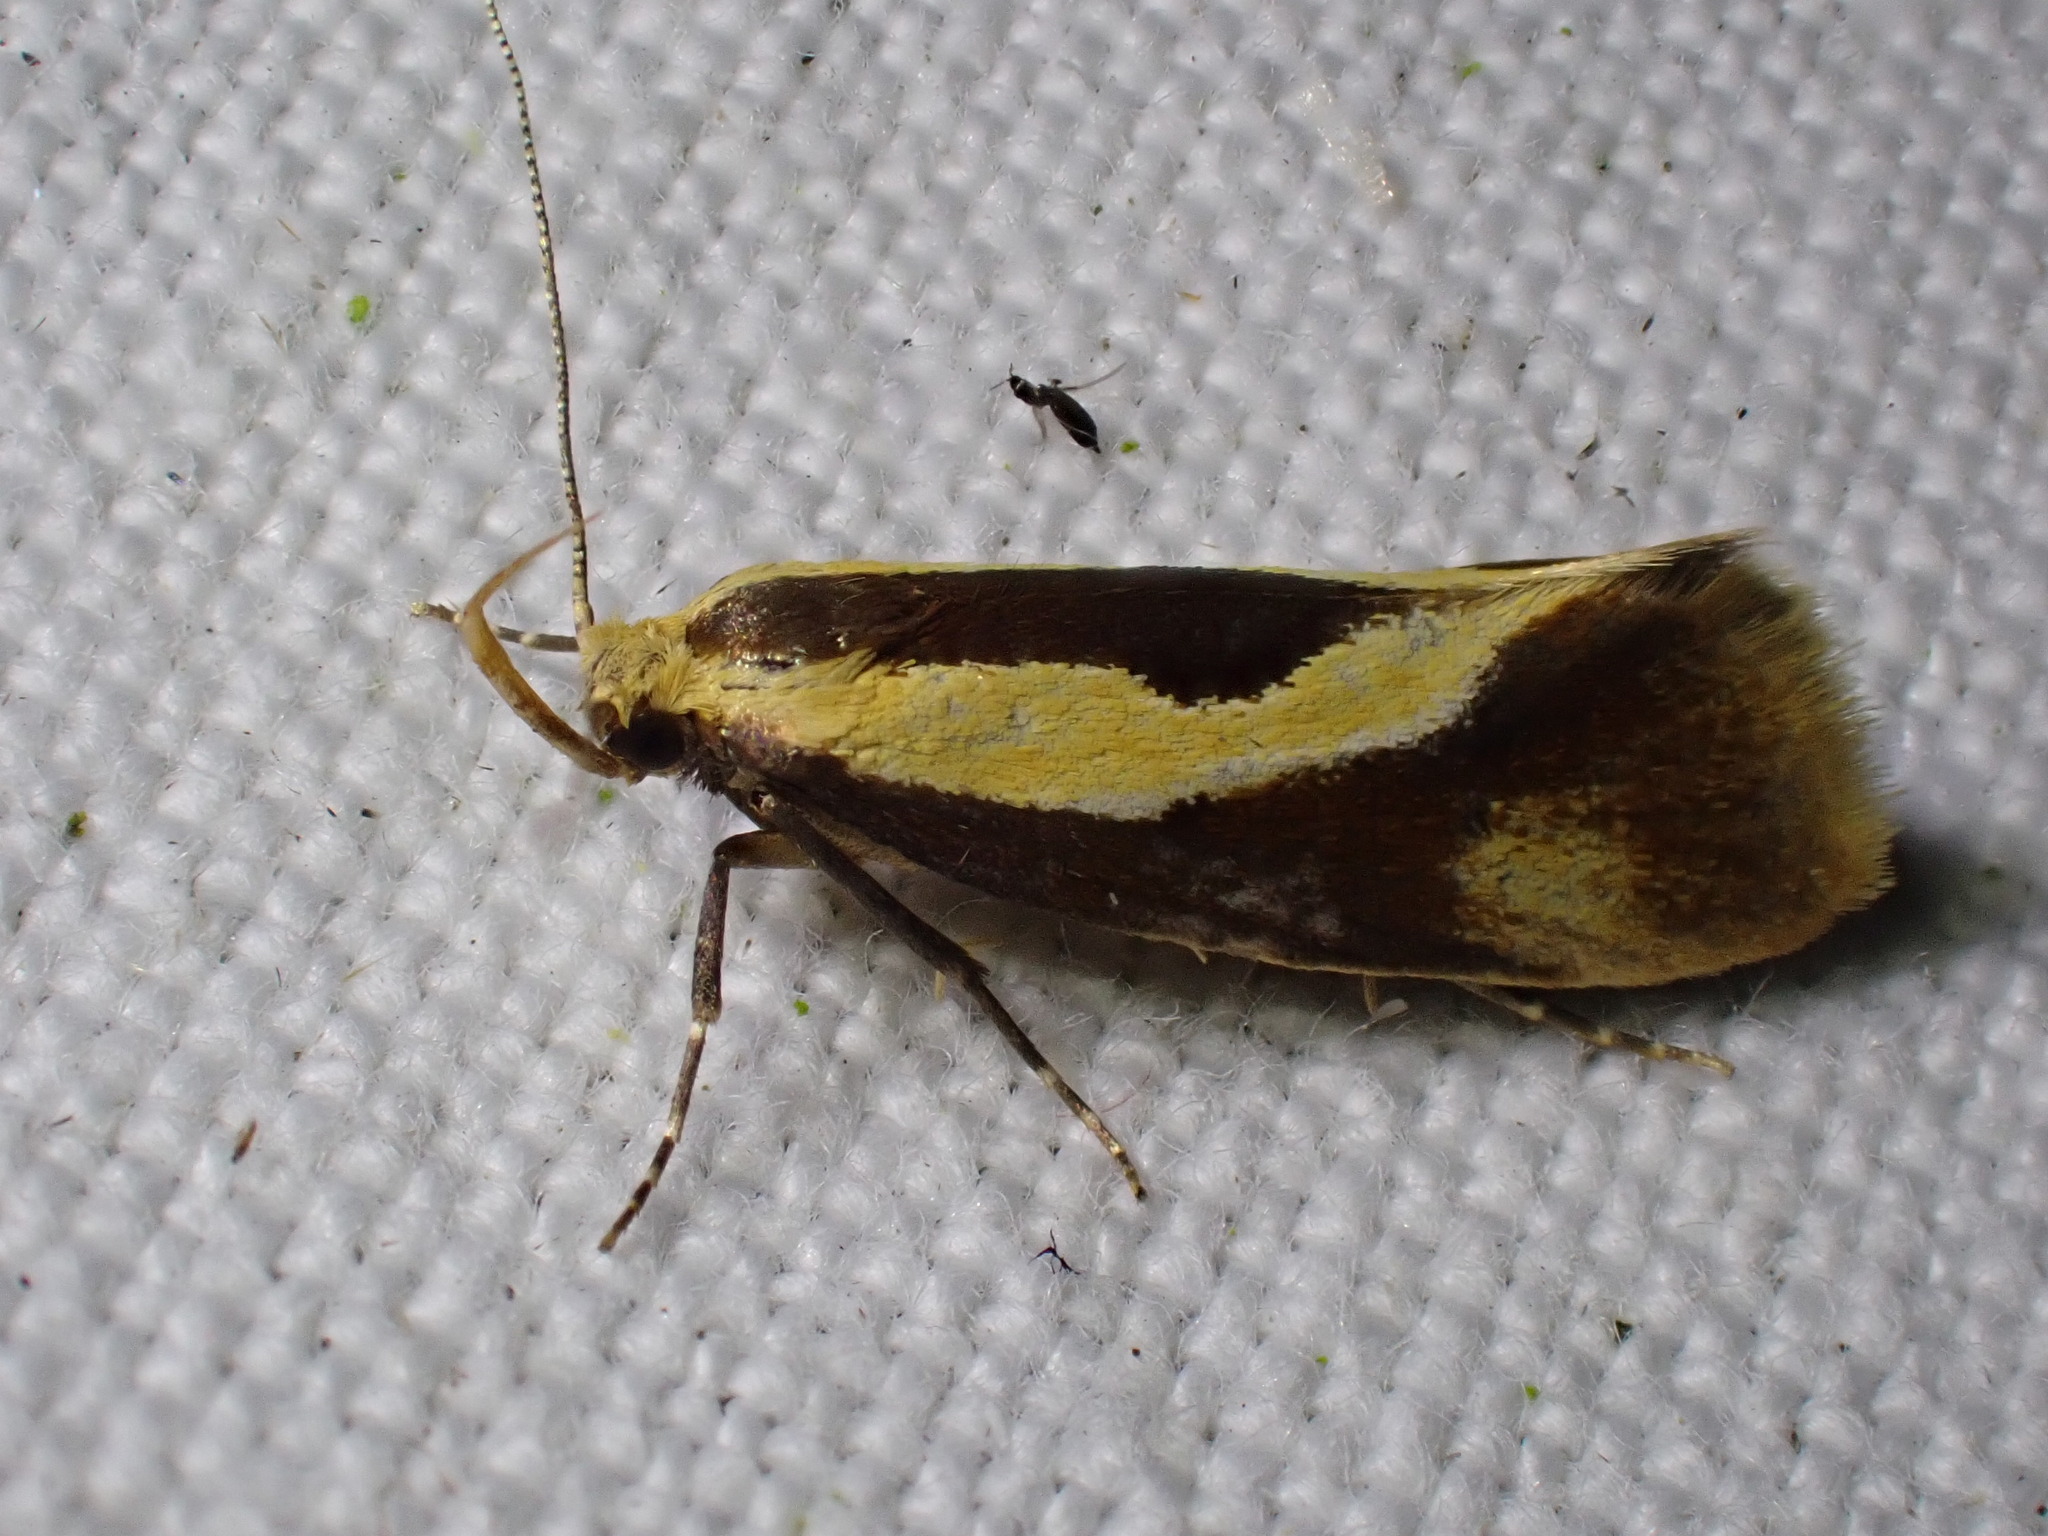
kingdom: Animalia
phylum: Arthropoda
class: Insecta
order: Lepidoptera
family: Oecophoridae
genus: Harpella
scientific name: Harpella forficella
